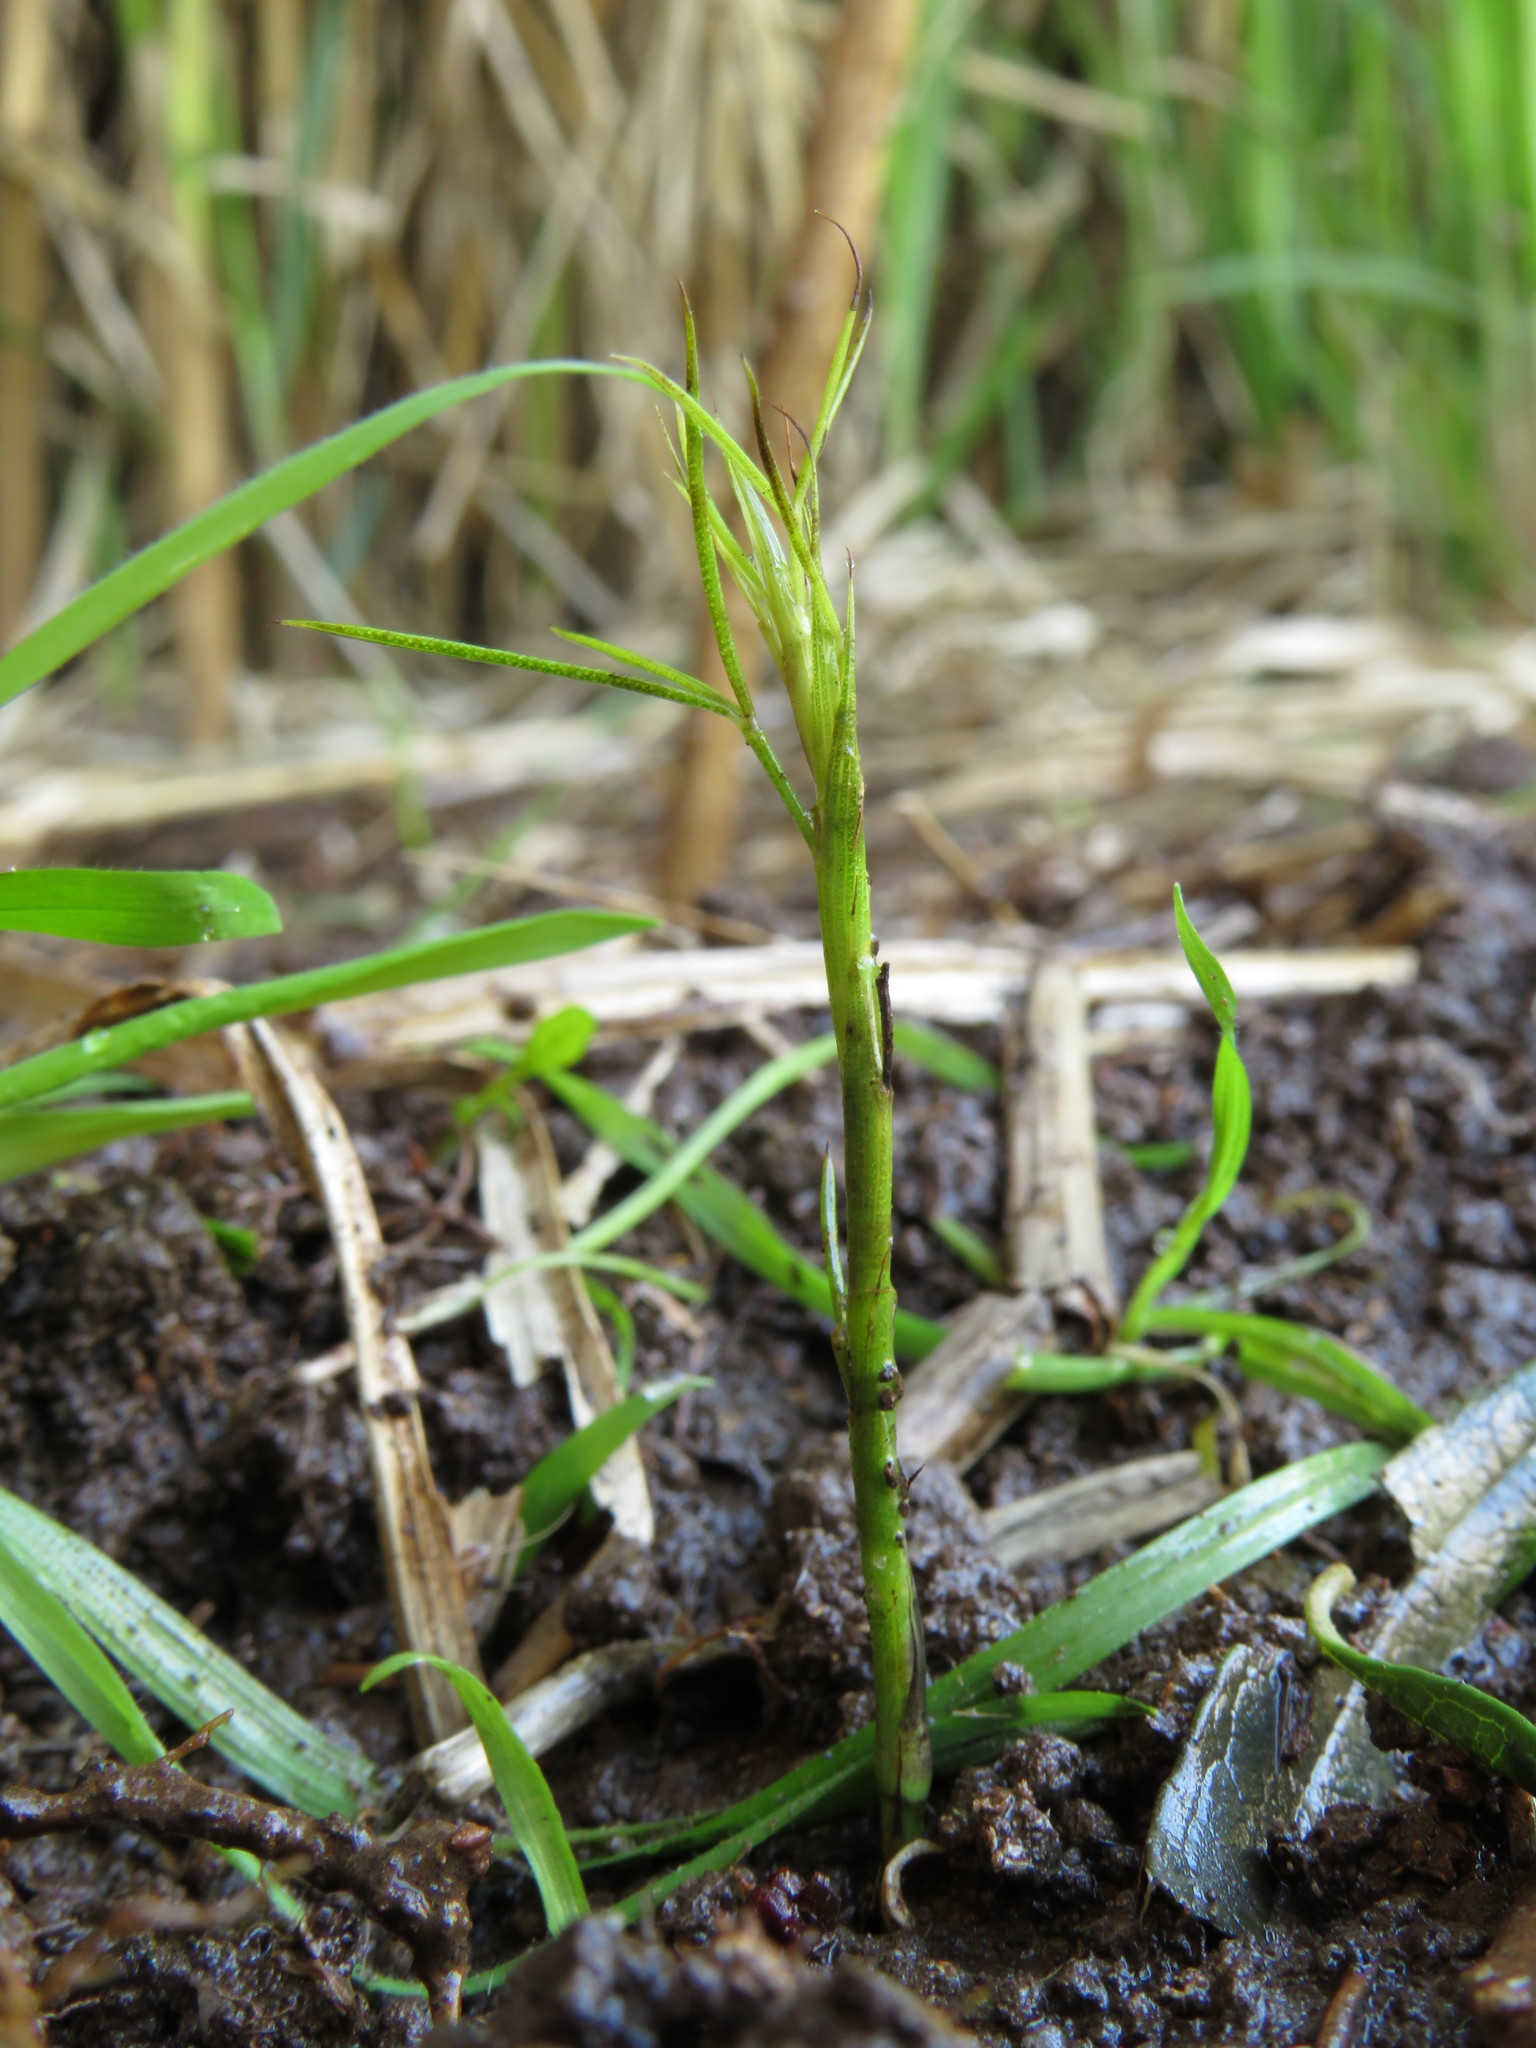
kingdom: Plantae
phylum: Tracheophyta
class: Magnoliopsida
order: Fabales
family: Fabaceae
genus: Psoralea
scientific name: Psoralea fascicularis
